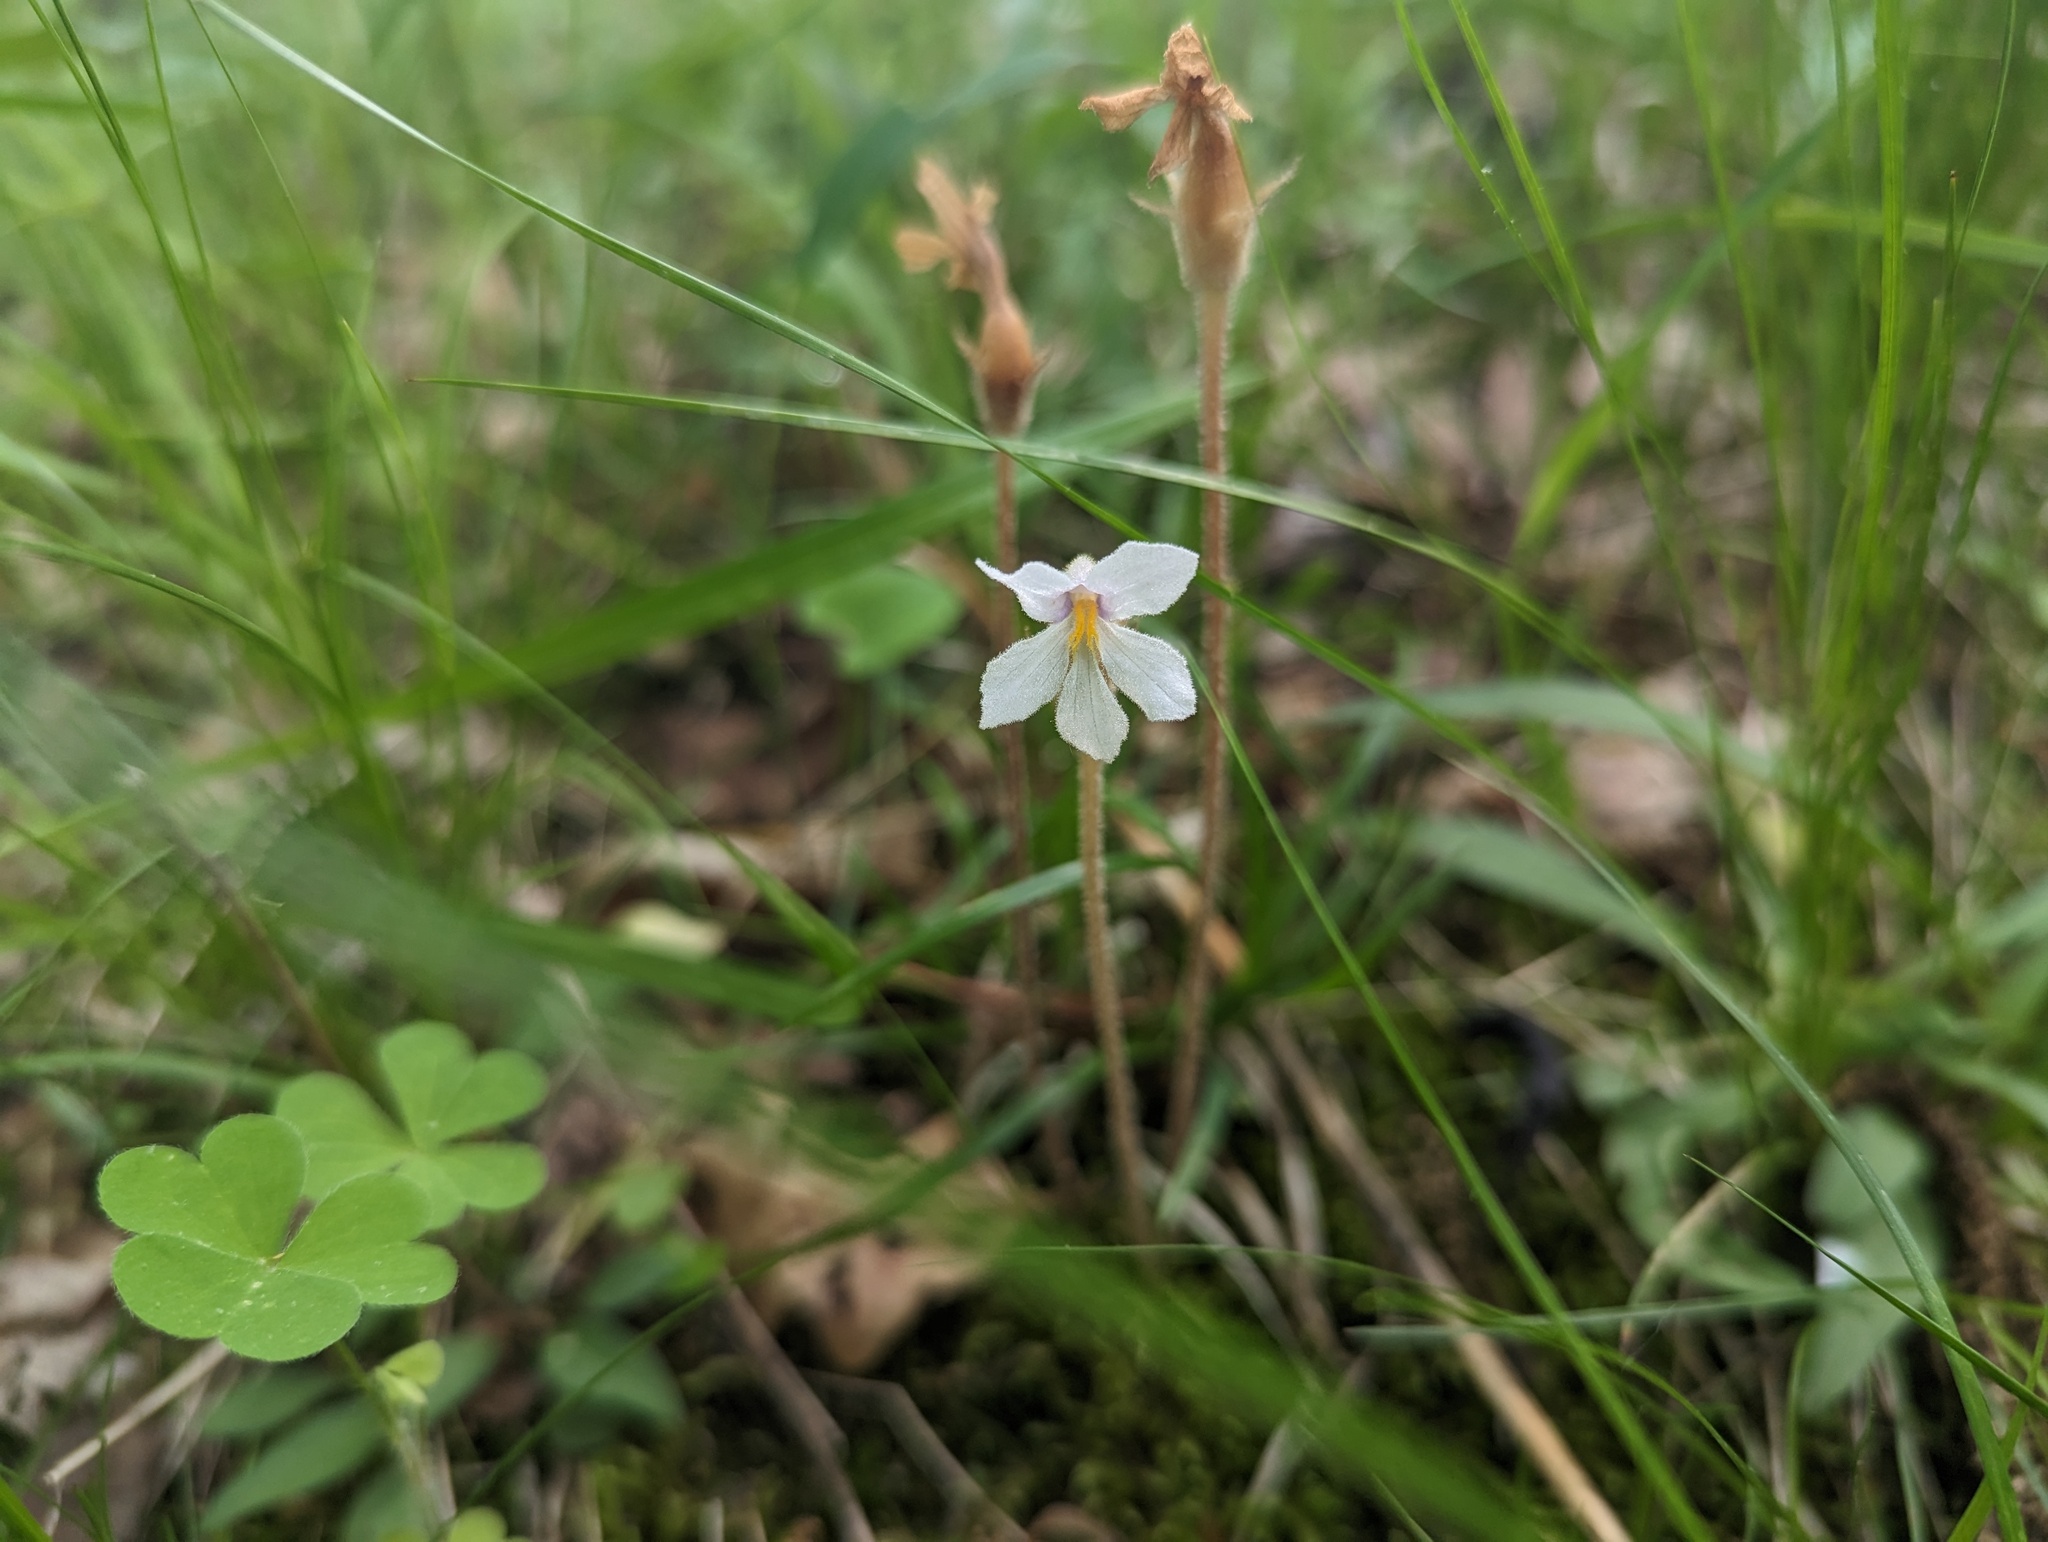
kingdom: Plantae
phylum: Tracheophyta
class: Magnoliopsida
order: Lamiales
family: Orobanchaceae
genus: Aphyllon
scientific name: Aphyllon uniflorum
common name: One-flowered broomrape
